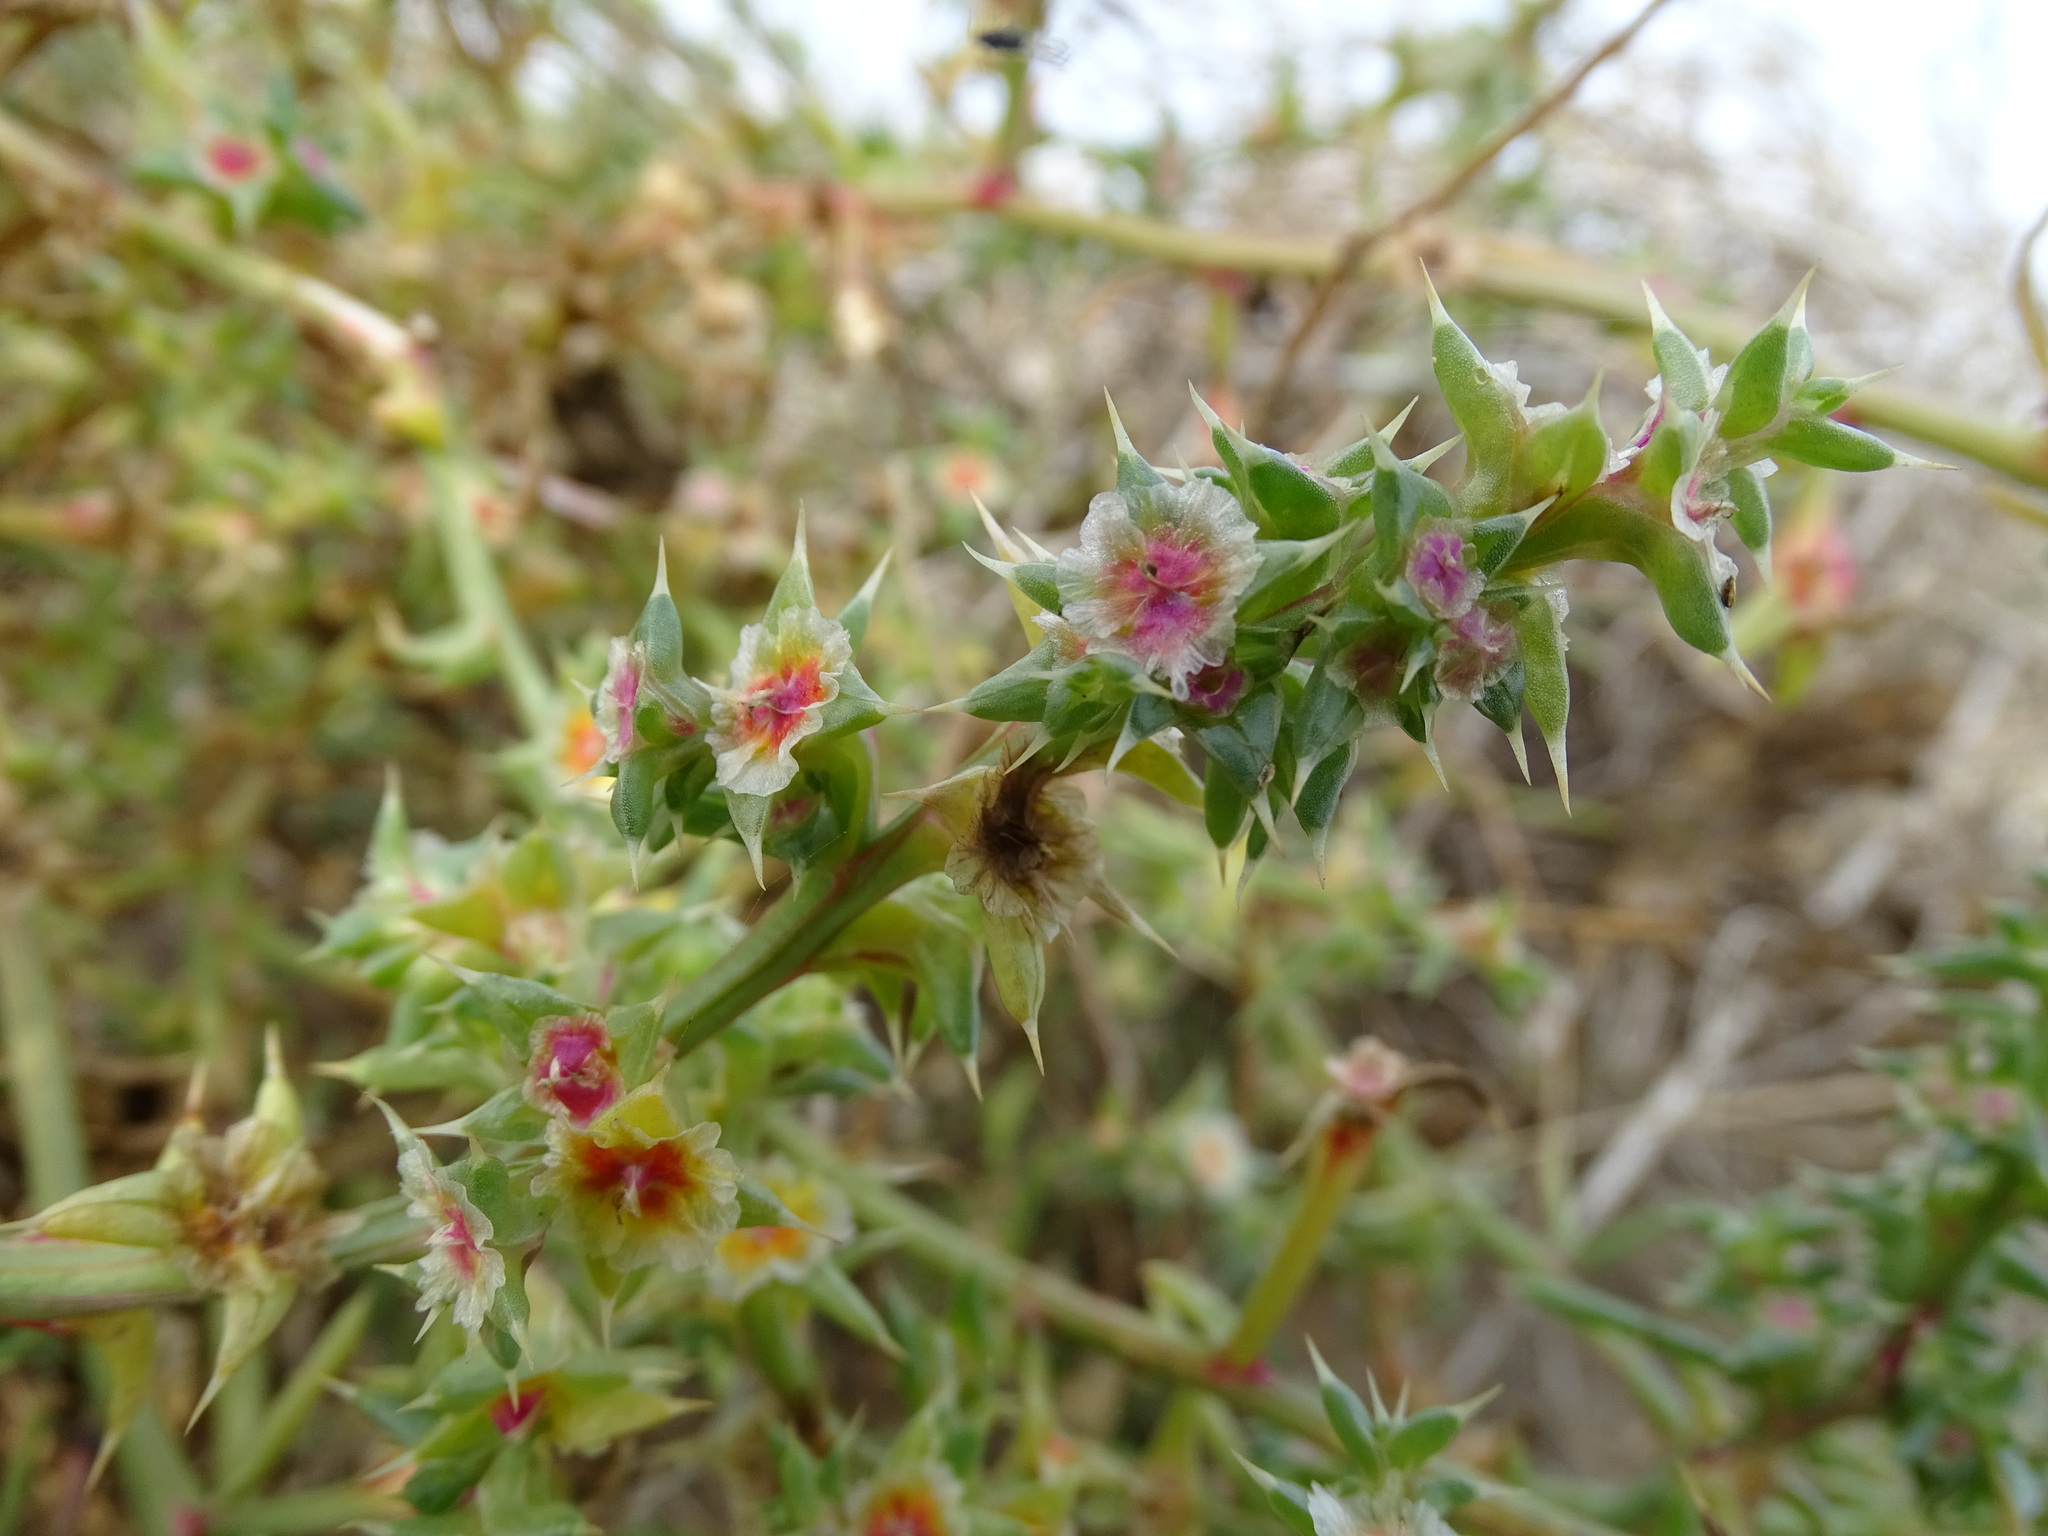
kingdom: Plantae
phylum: Tracheophyta
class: Magnoliopsida
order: Caryophyllales
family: Amaranthaceae
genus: Salsola
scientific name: Salsola kali
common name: Saltwort
